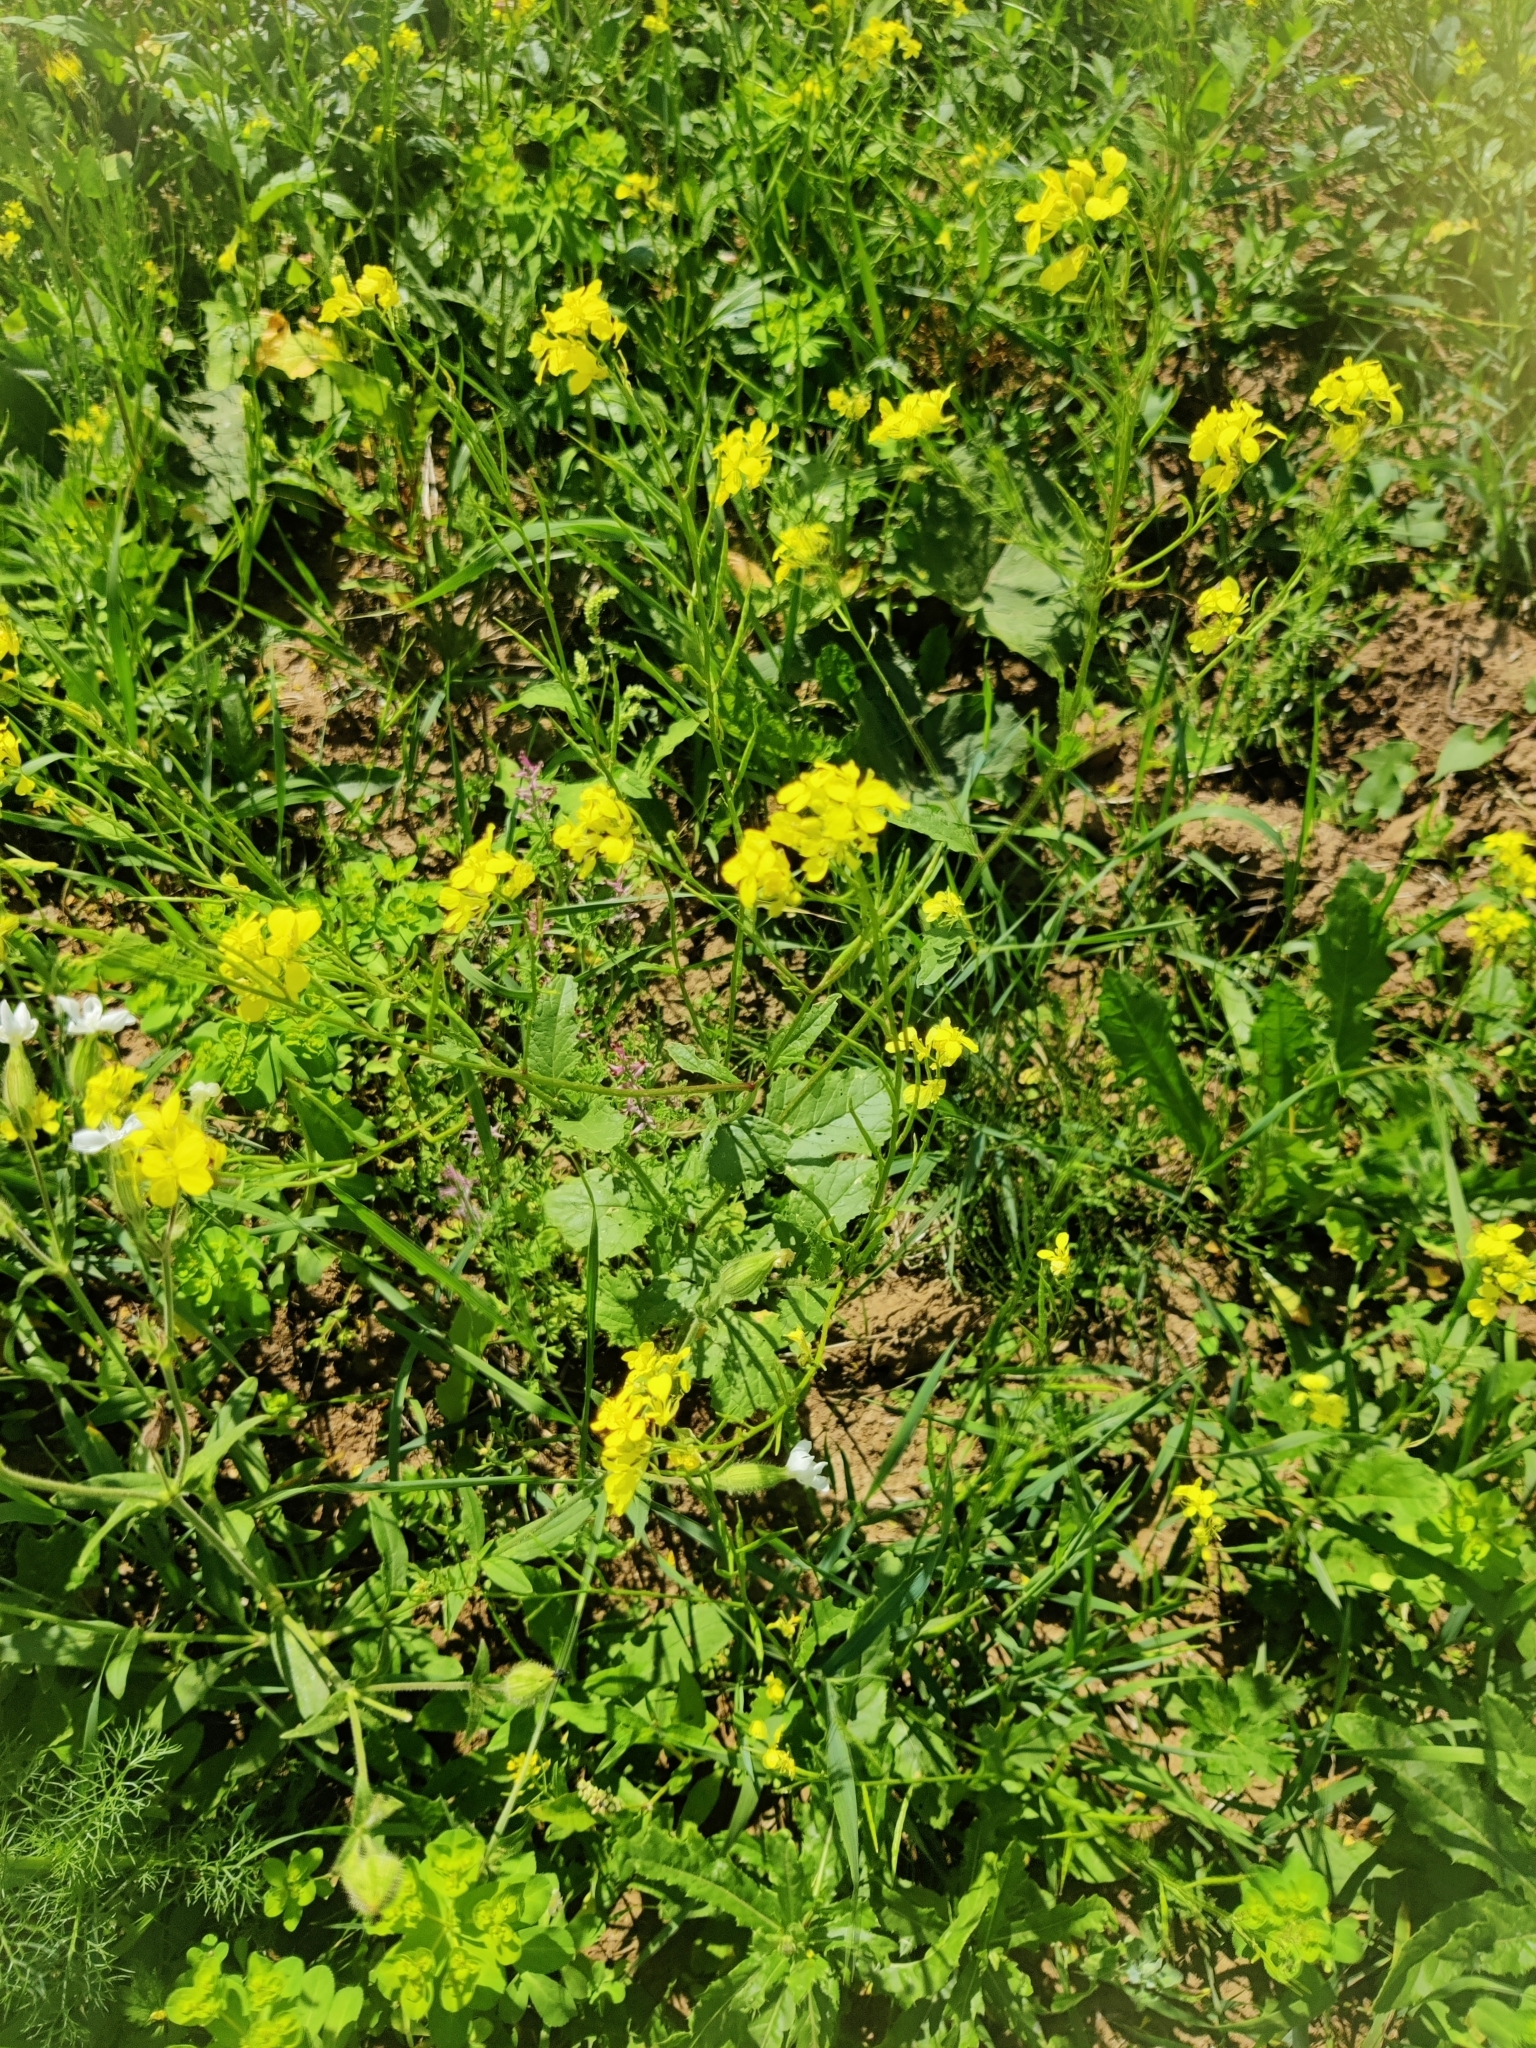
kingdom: Plantae
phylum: Tracheophyta
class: Magnoliopsida
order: Brassicales
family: Brassicaceae
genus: Sinapis
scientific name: Sinapis arvensis
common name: Charlock
